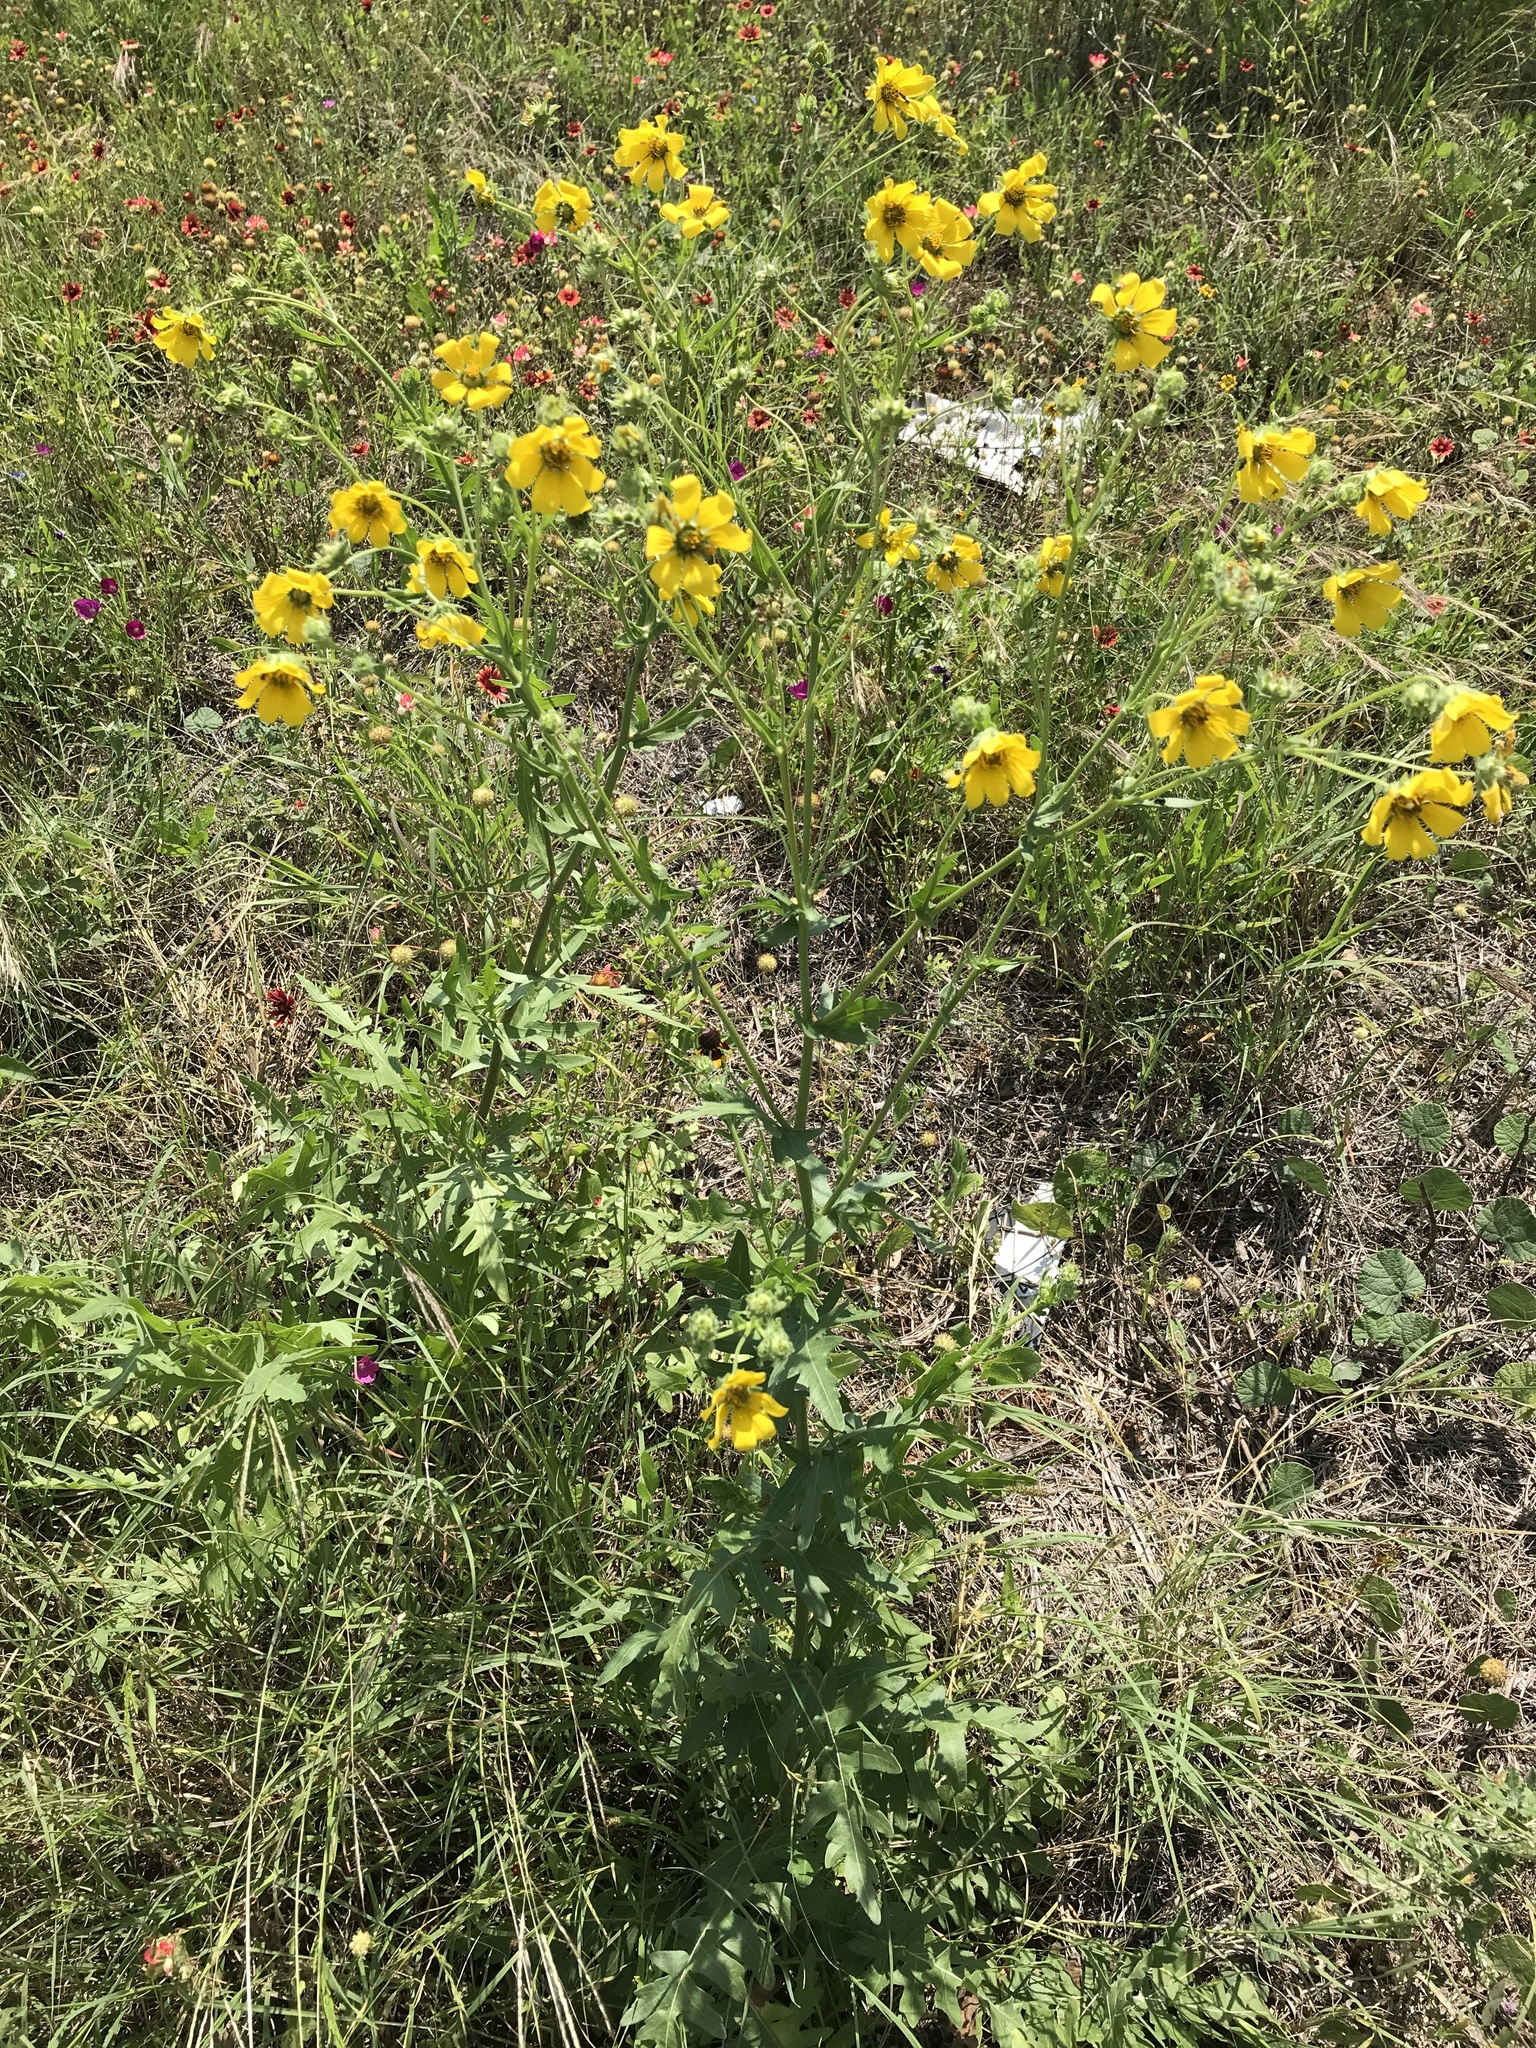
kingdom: Plantae
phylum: Tracheophyta
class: Magnoliopsida
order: Asterales
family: Asteraceae
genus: Engelmannia
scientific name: Engelmannia peristenia
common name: Engelmann's daisy
